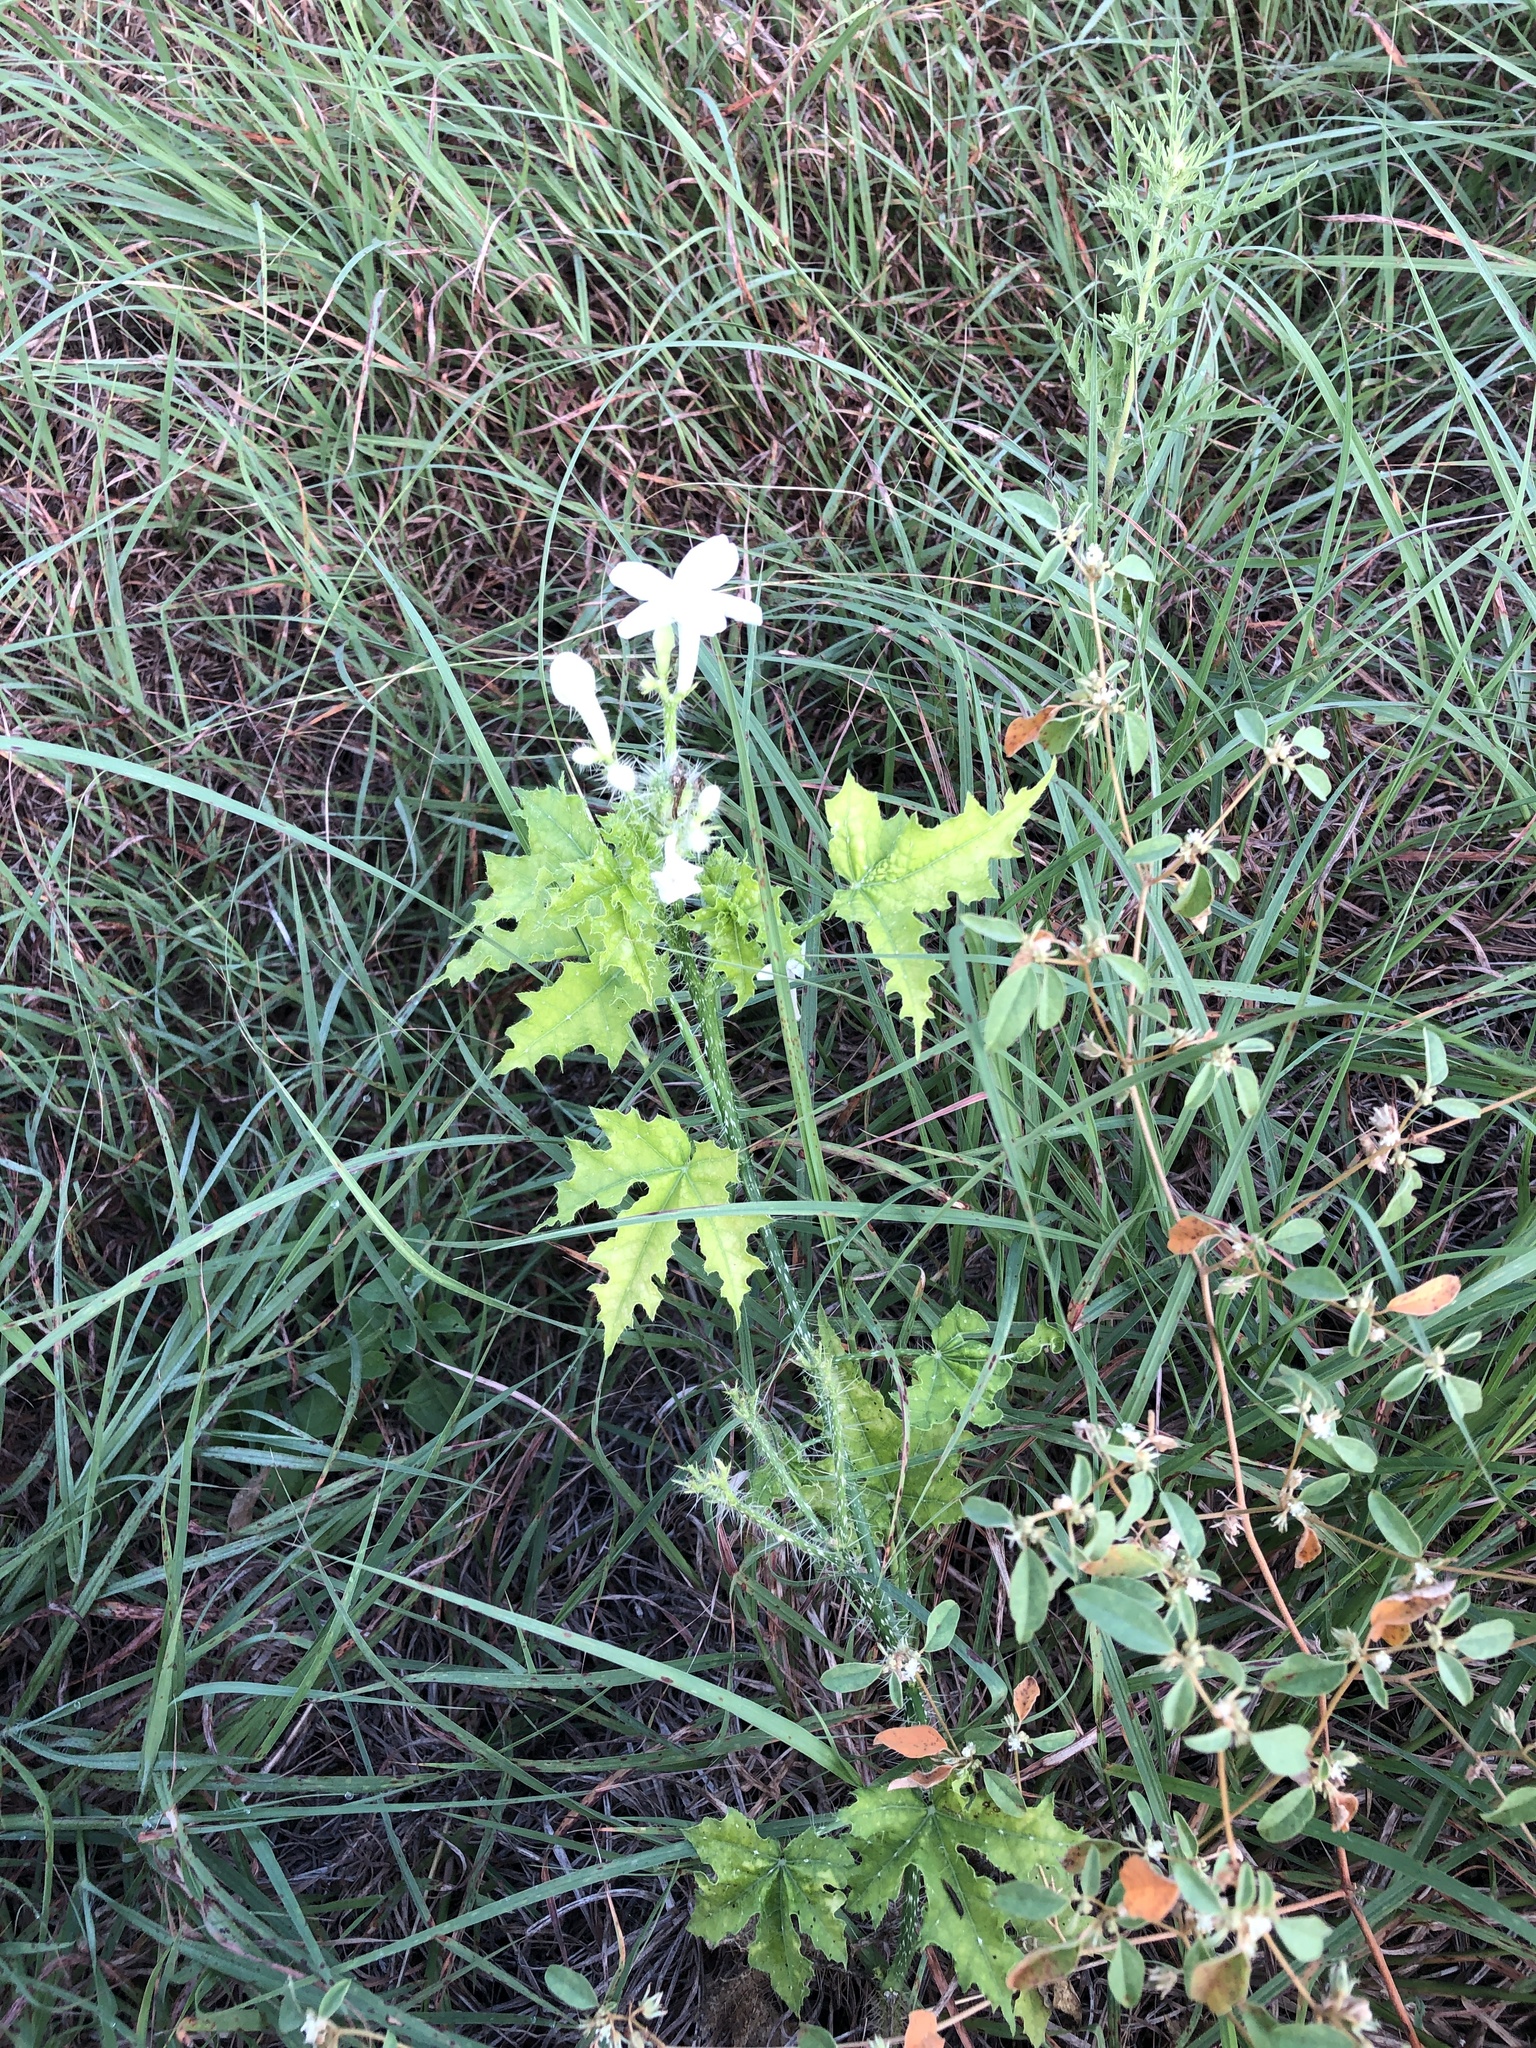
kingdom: Plantae
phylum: Tracheophyta
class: Magnoliopsida
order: Malpighiales
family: Euphorbiaceae
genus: Cnidoscolus
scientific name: Cnidoscolus texanus
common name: Texas bull-nettle
